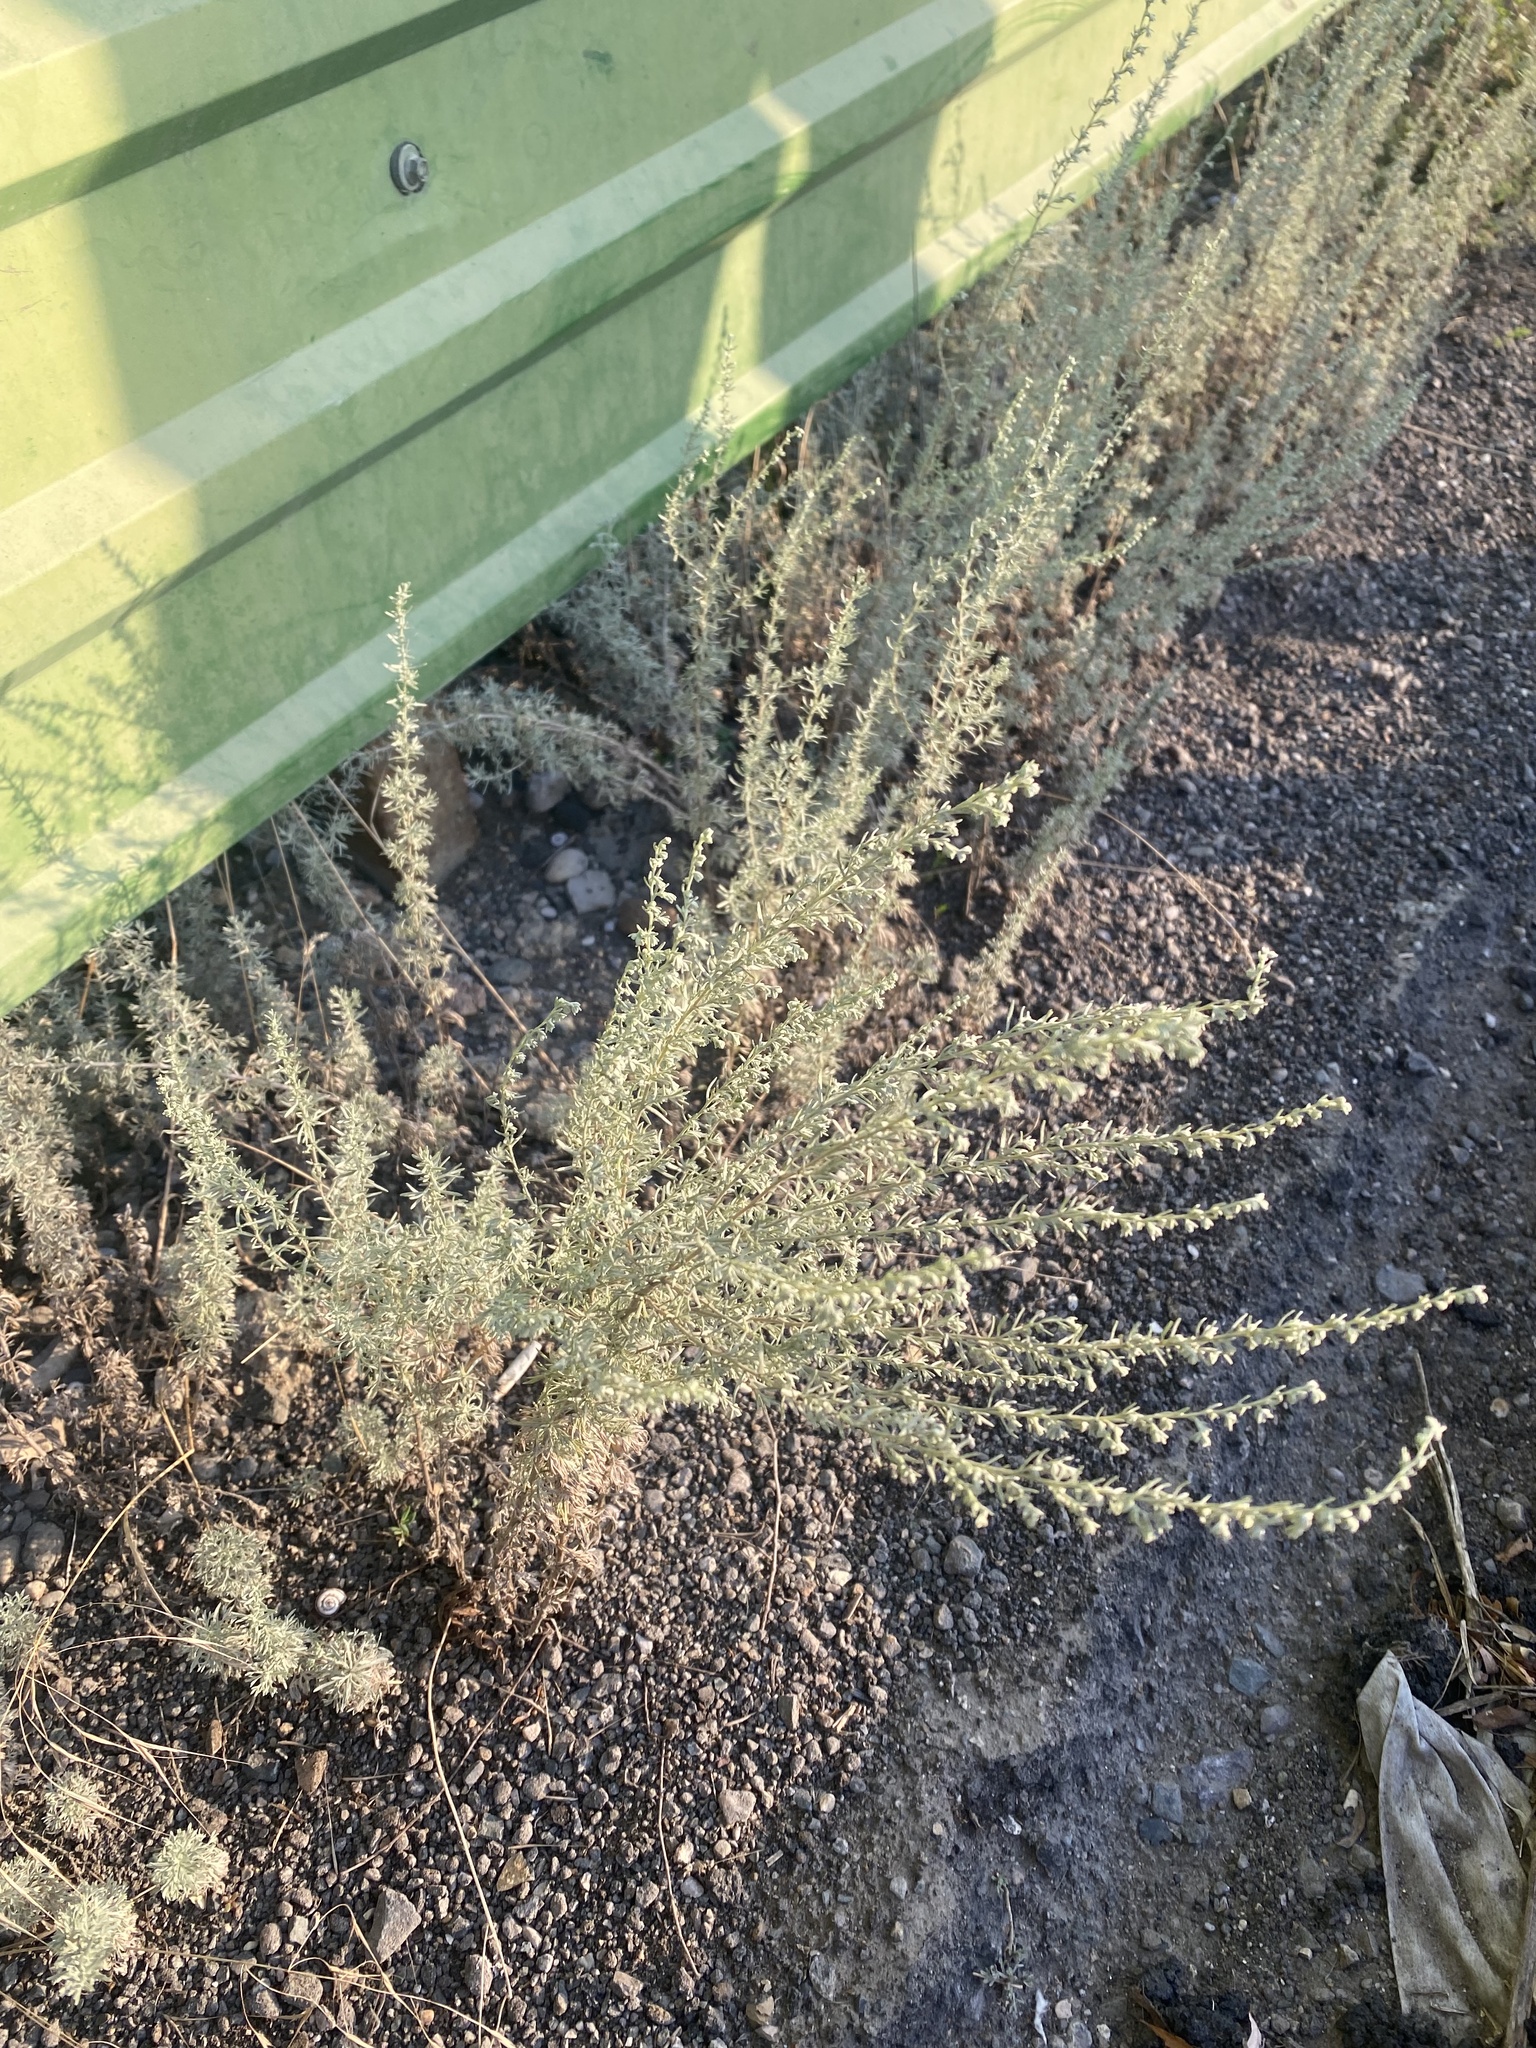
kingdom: Plantae
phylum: Tracheophyta
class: Magnoliopsida
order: Asterales
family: Asteraceae
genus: Artemisia
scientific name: Artemisia
